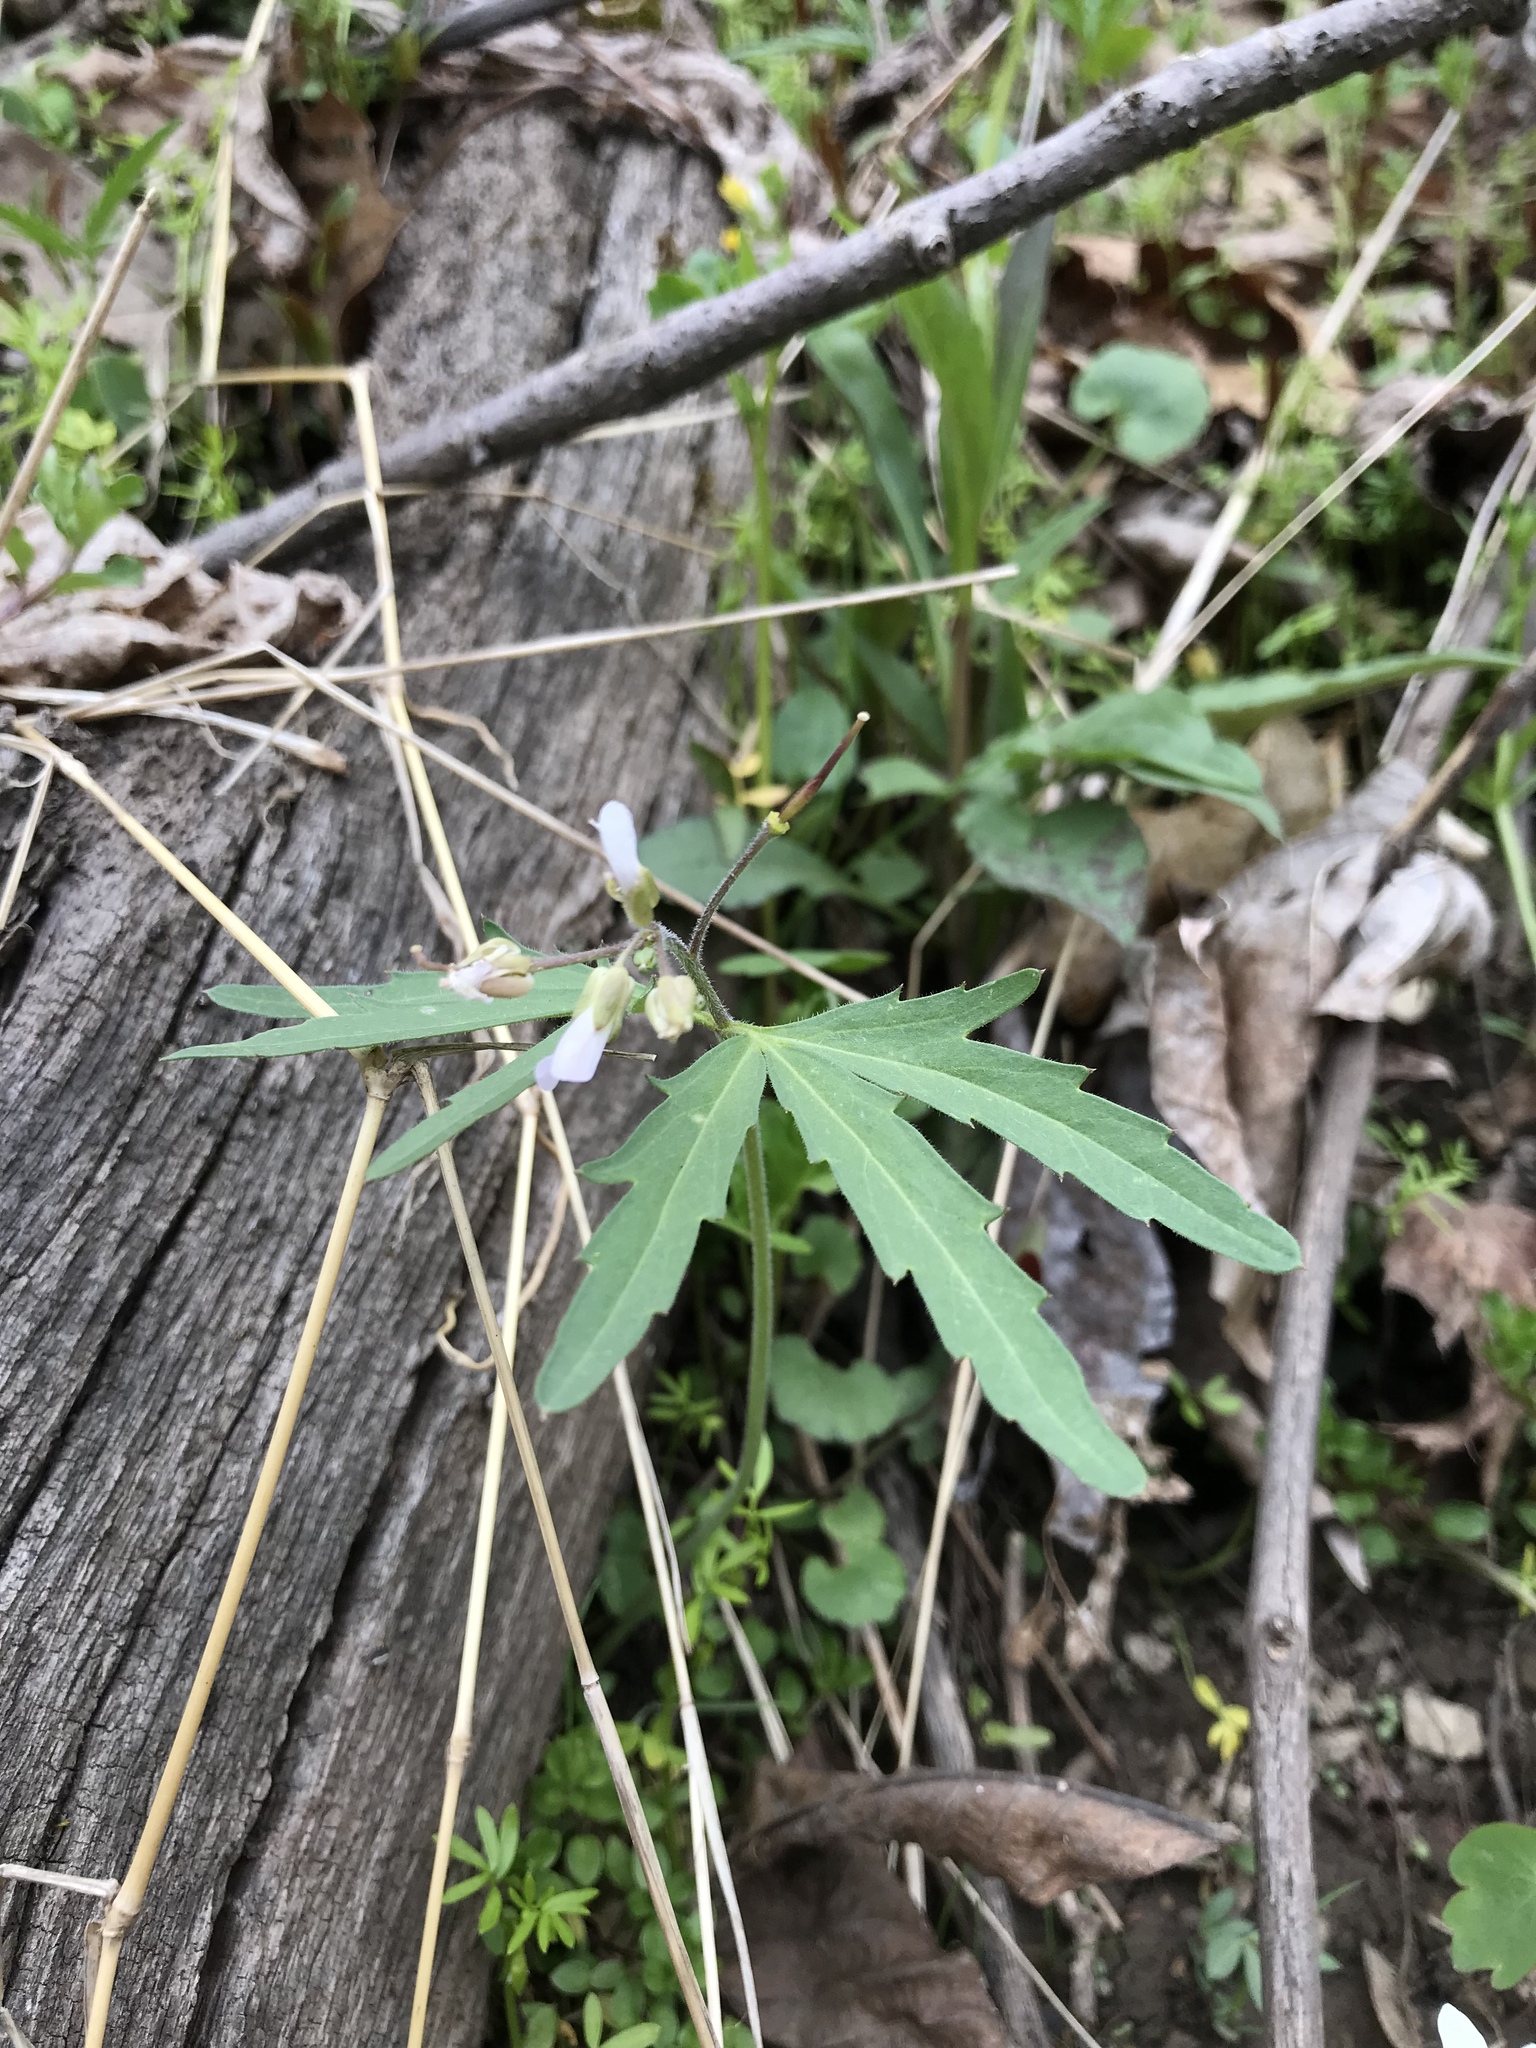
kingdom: Plantae
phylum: Tracheophyta
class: Magnoliopsida
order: Brassicales
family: Brassicaceae
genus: Cardamine
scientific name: Cardamine concatenata
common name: Cut-leaf toothcup
